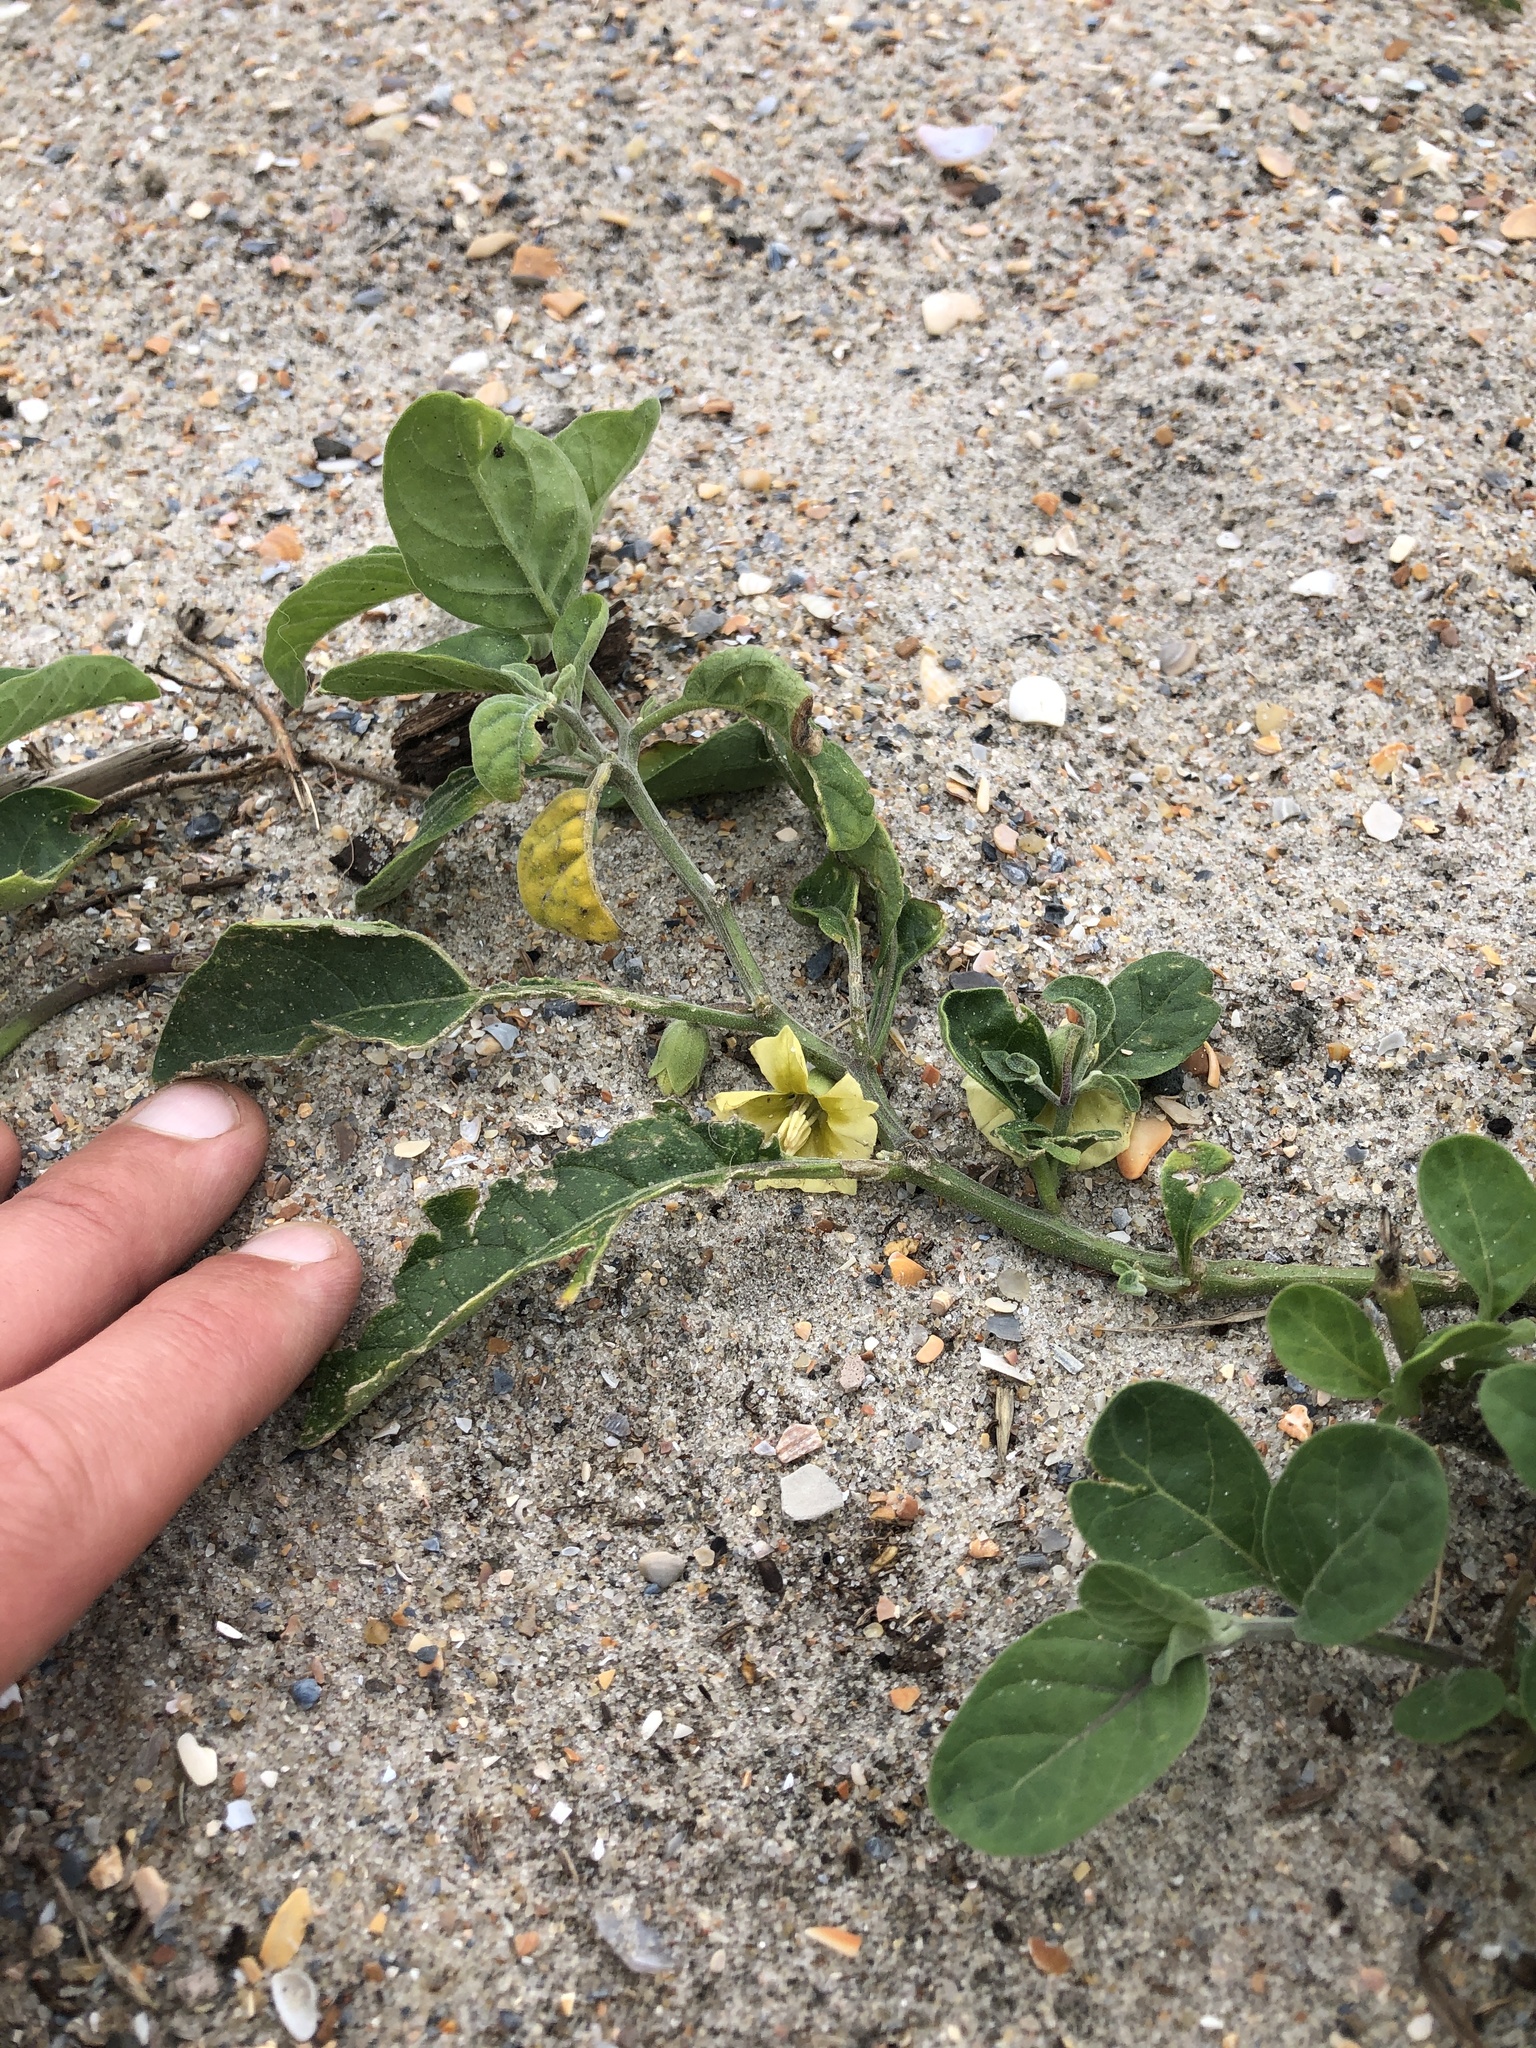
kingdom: Plantae
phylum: Tracheophyta
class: Magnoliopsida
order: Solanales
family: Solanaceae
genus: Physalis
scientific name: Physalis walteri
